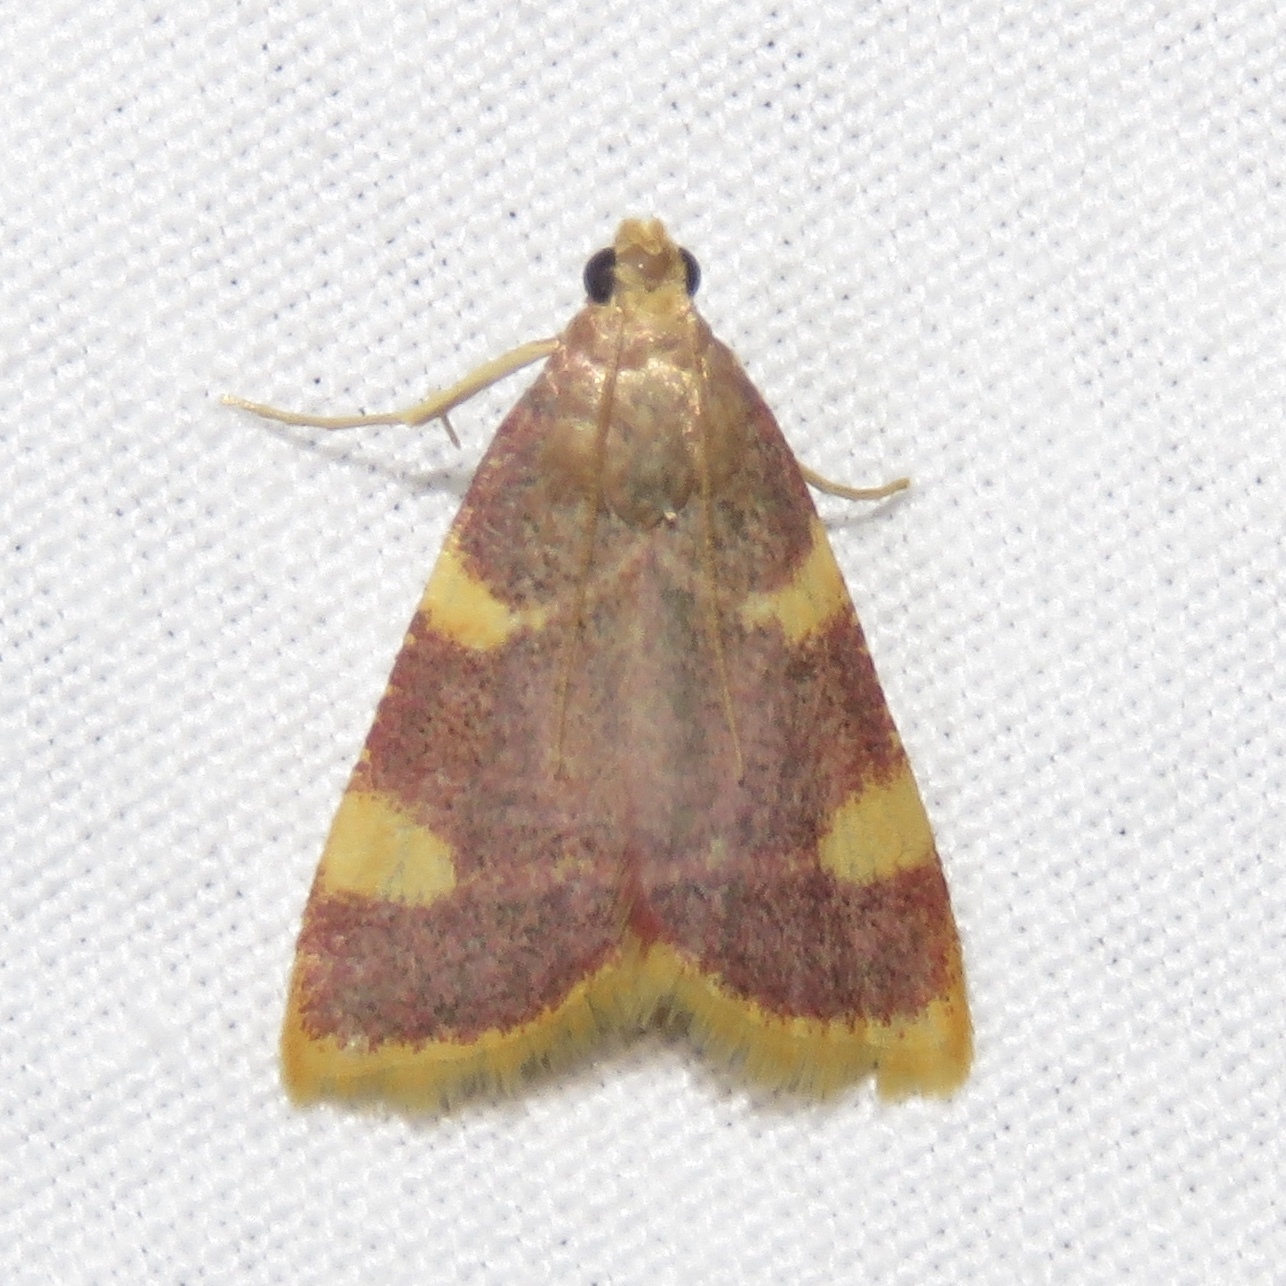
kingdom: Animalia
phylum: Arthropoda
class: Insecta
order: Lepidoptera
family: Pyralidae
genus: Hypsopygia
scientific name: Hypsopygia costalis
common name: Gold triangle
